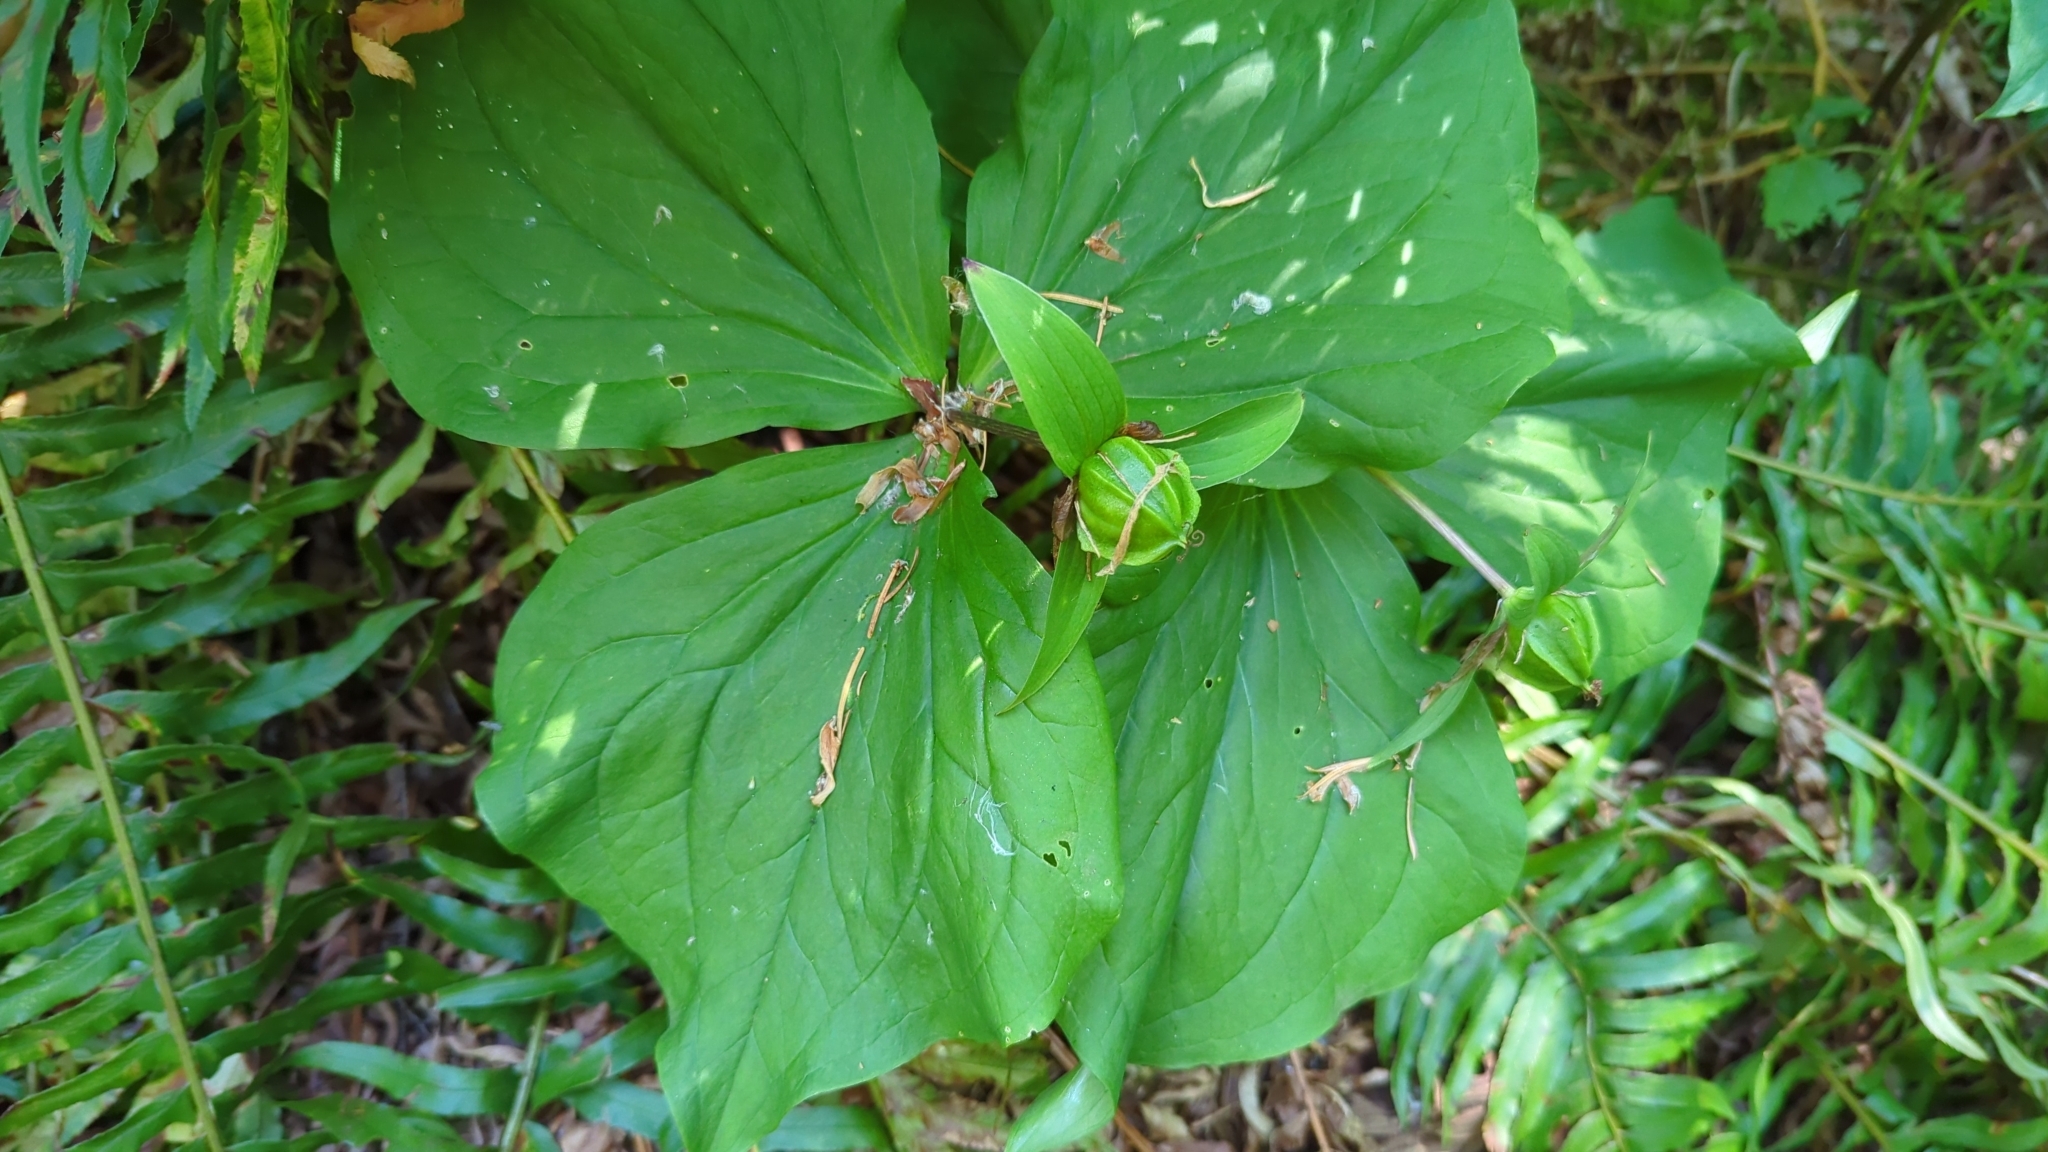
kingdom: Plantae
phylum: Tracheophyta
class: Liliopsida
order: Liliales
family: Melanthiaceae
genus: Trillium
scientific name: Trillium ovatum
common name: Pacific trillium
